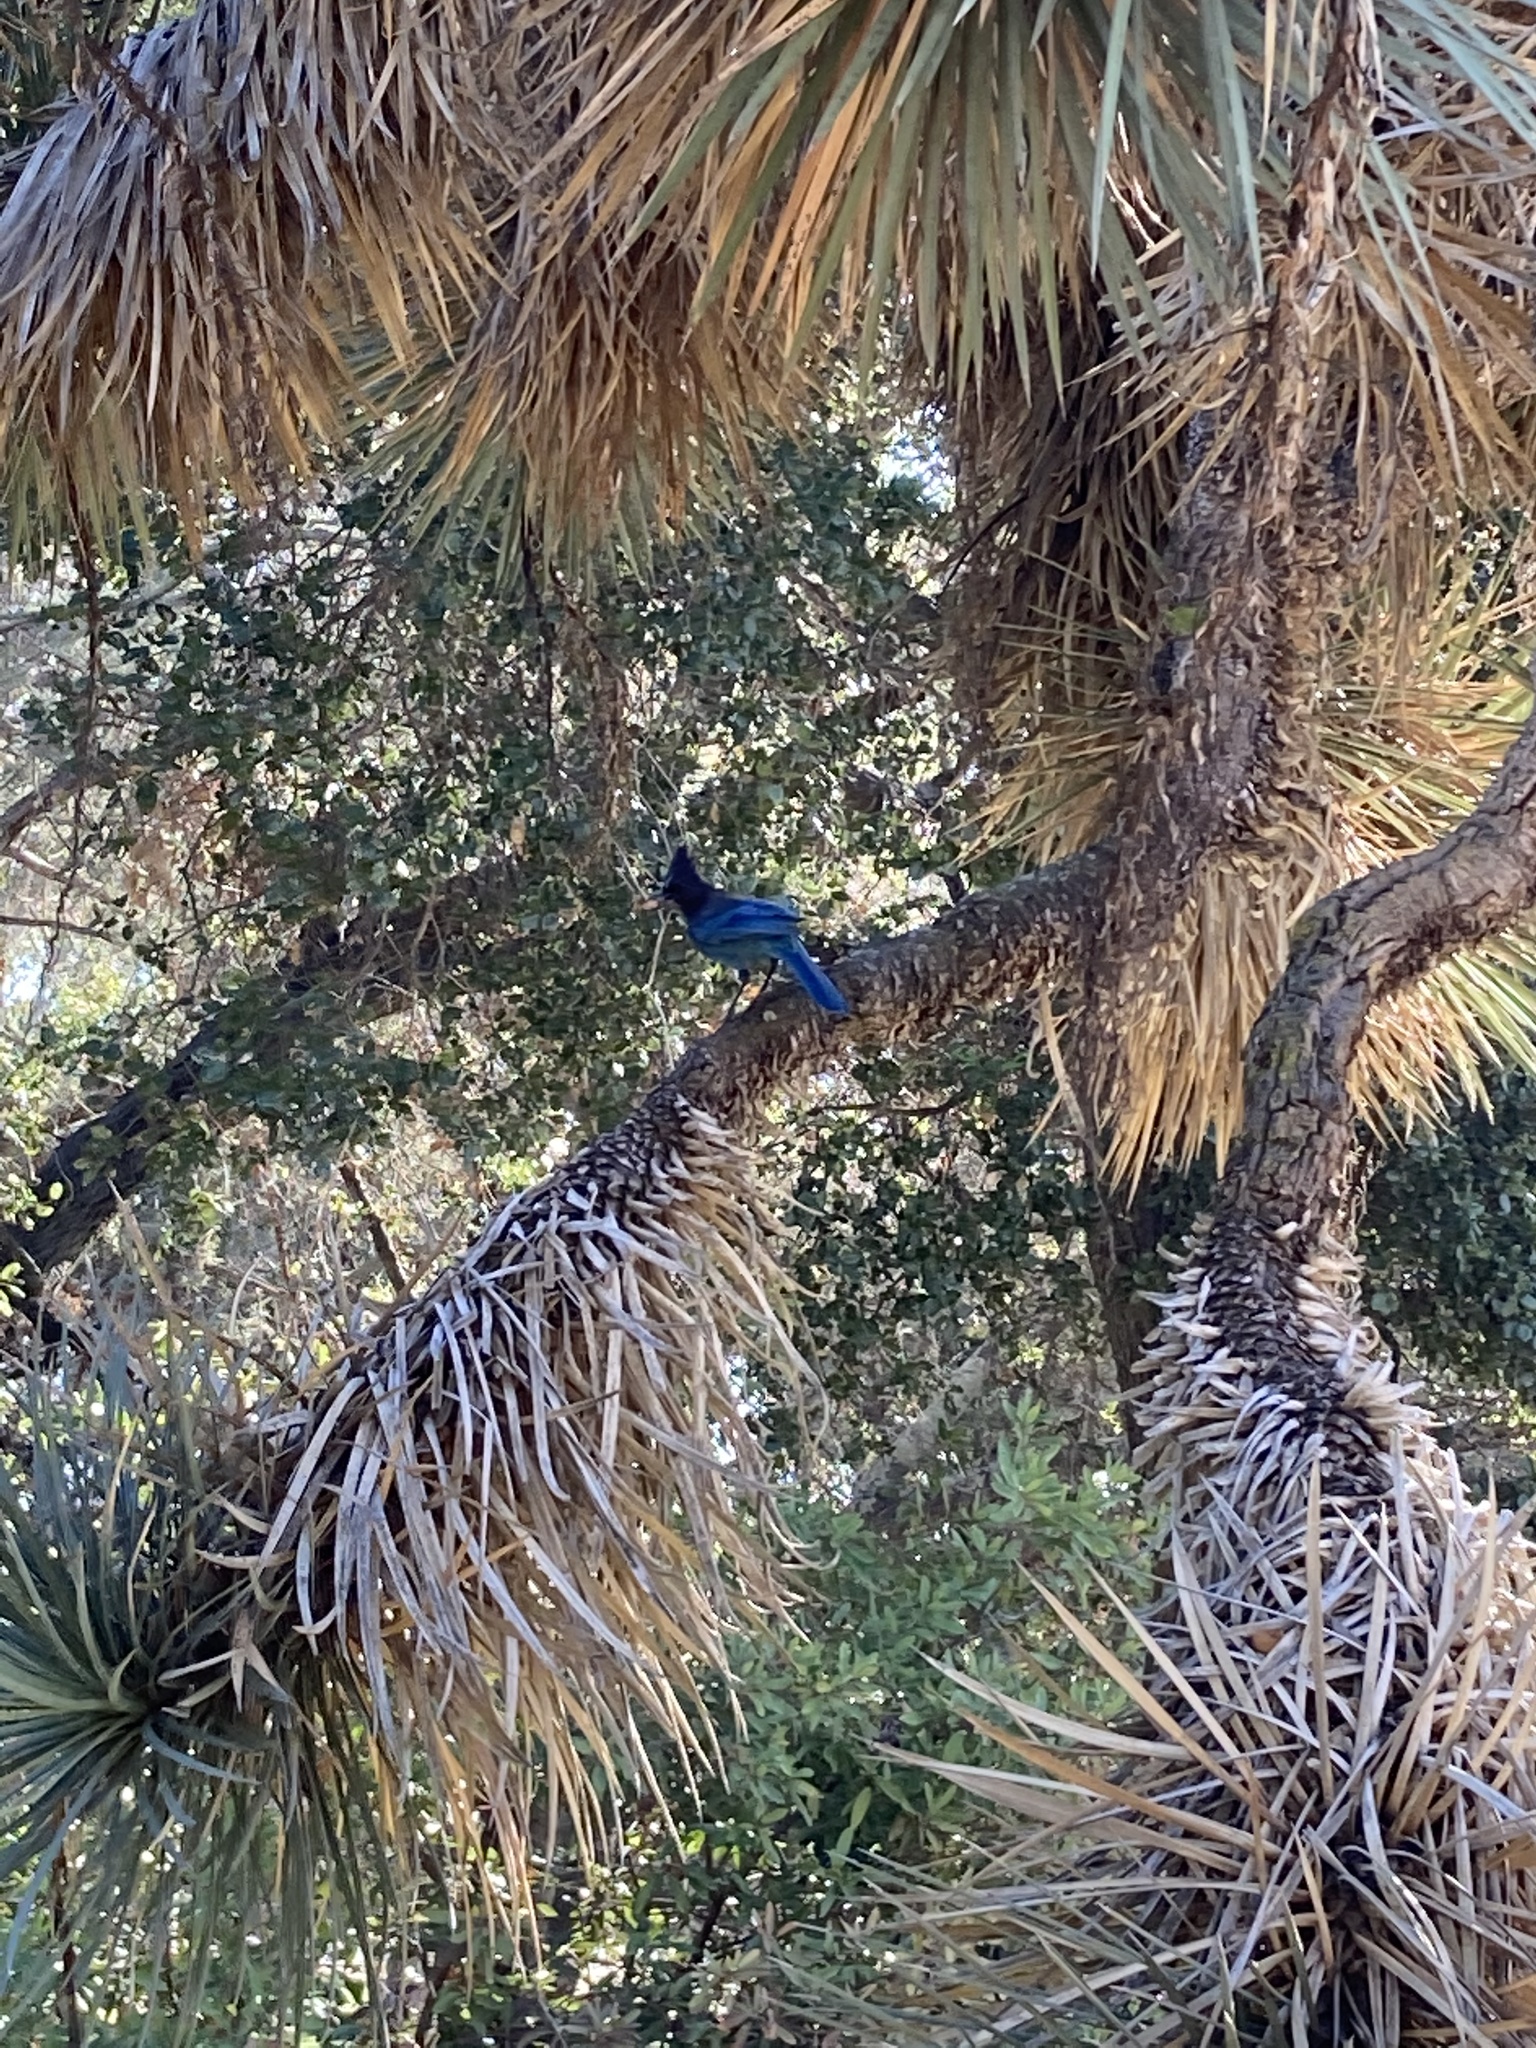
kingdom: Animalia
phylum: Chordata
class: Aves
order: Passeriformes
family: Corvidae
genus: Cyanocitta
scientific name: Cyanocitta stelleri
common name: Steller's jay
